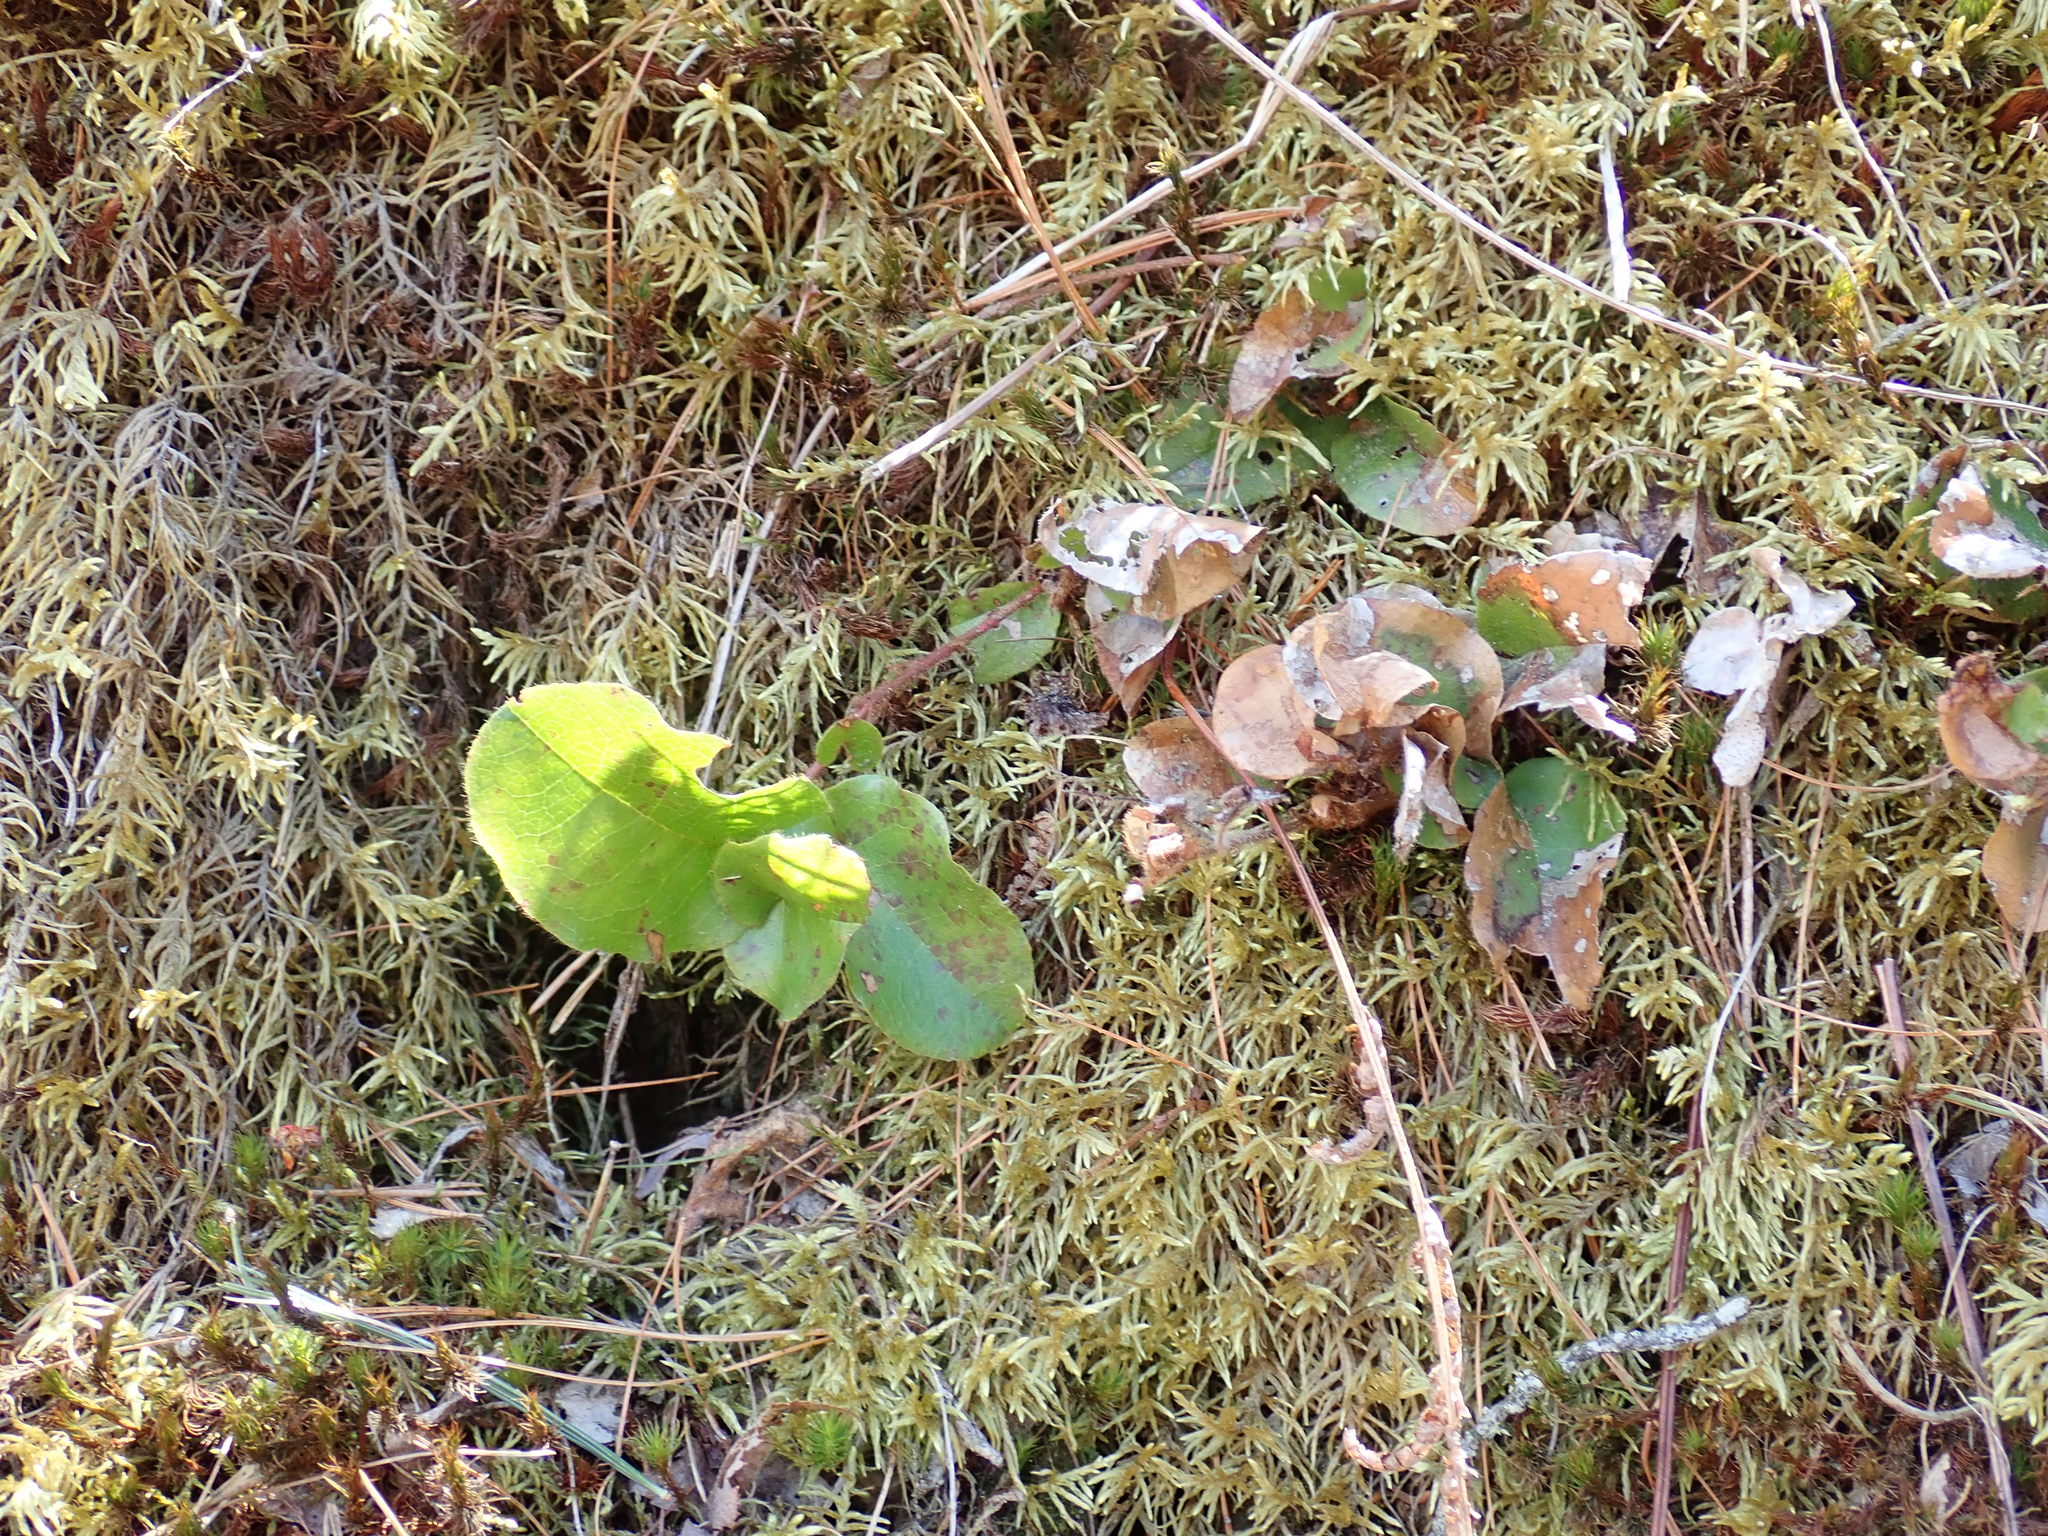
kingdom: Plantae
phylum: Tracheophyta
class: Magnoliopsida
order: Ericales
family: Ericaceae
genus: Epigaea
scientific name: Epigaea repens
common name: Gravelroot
